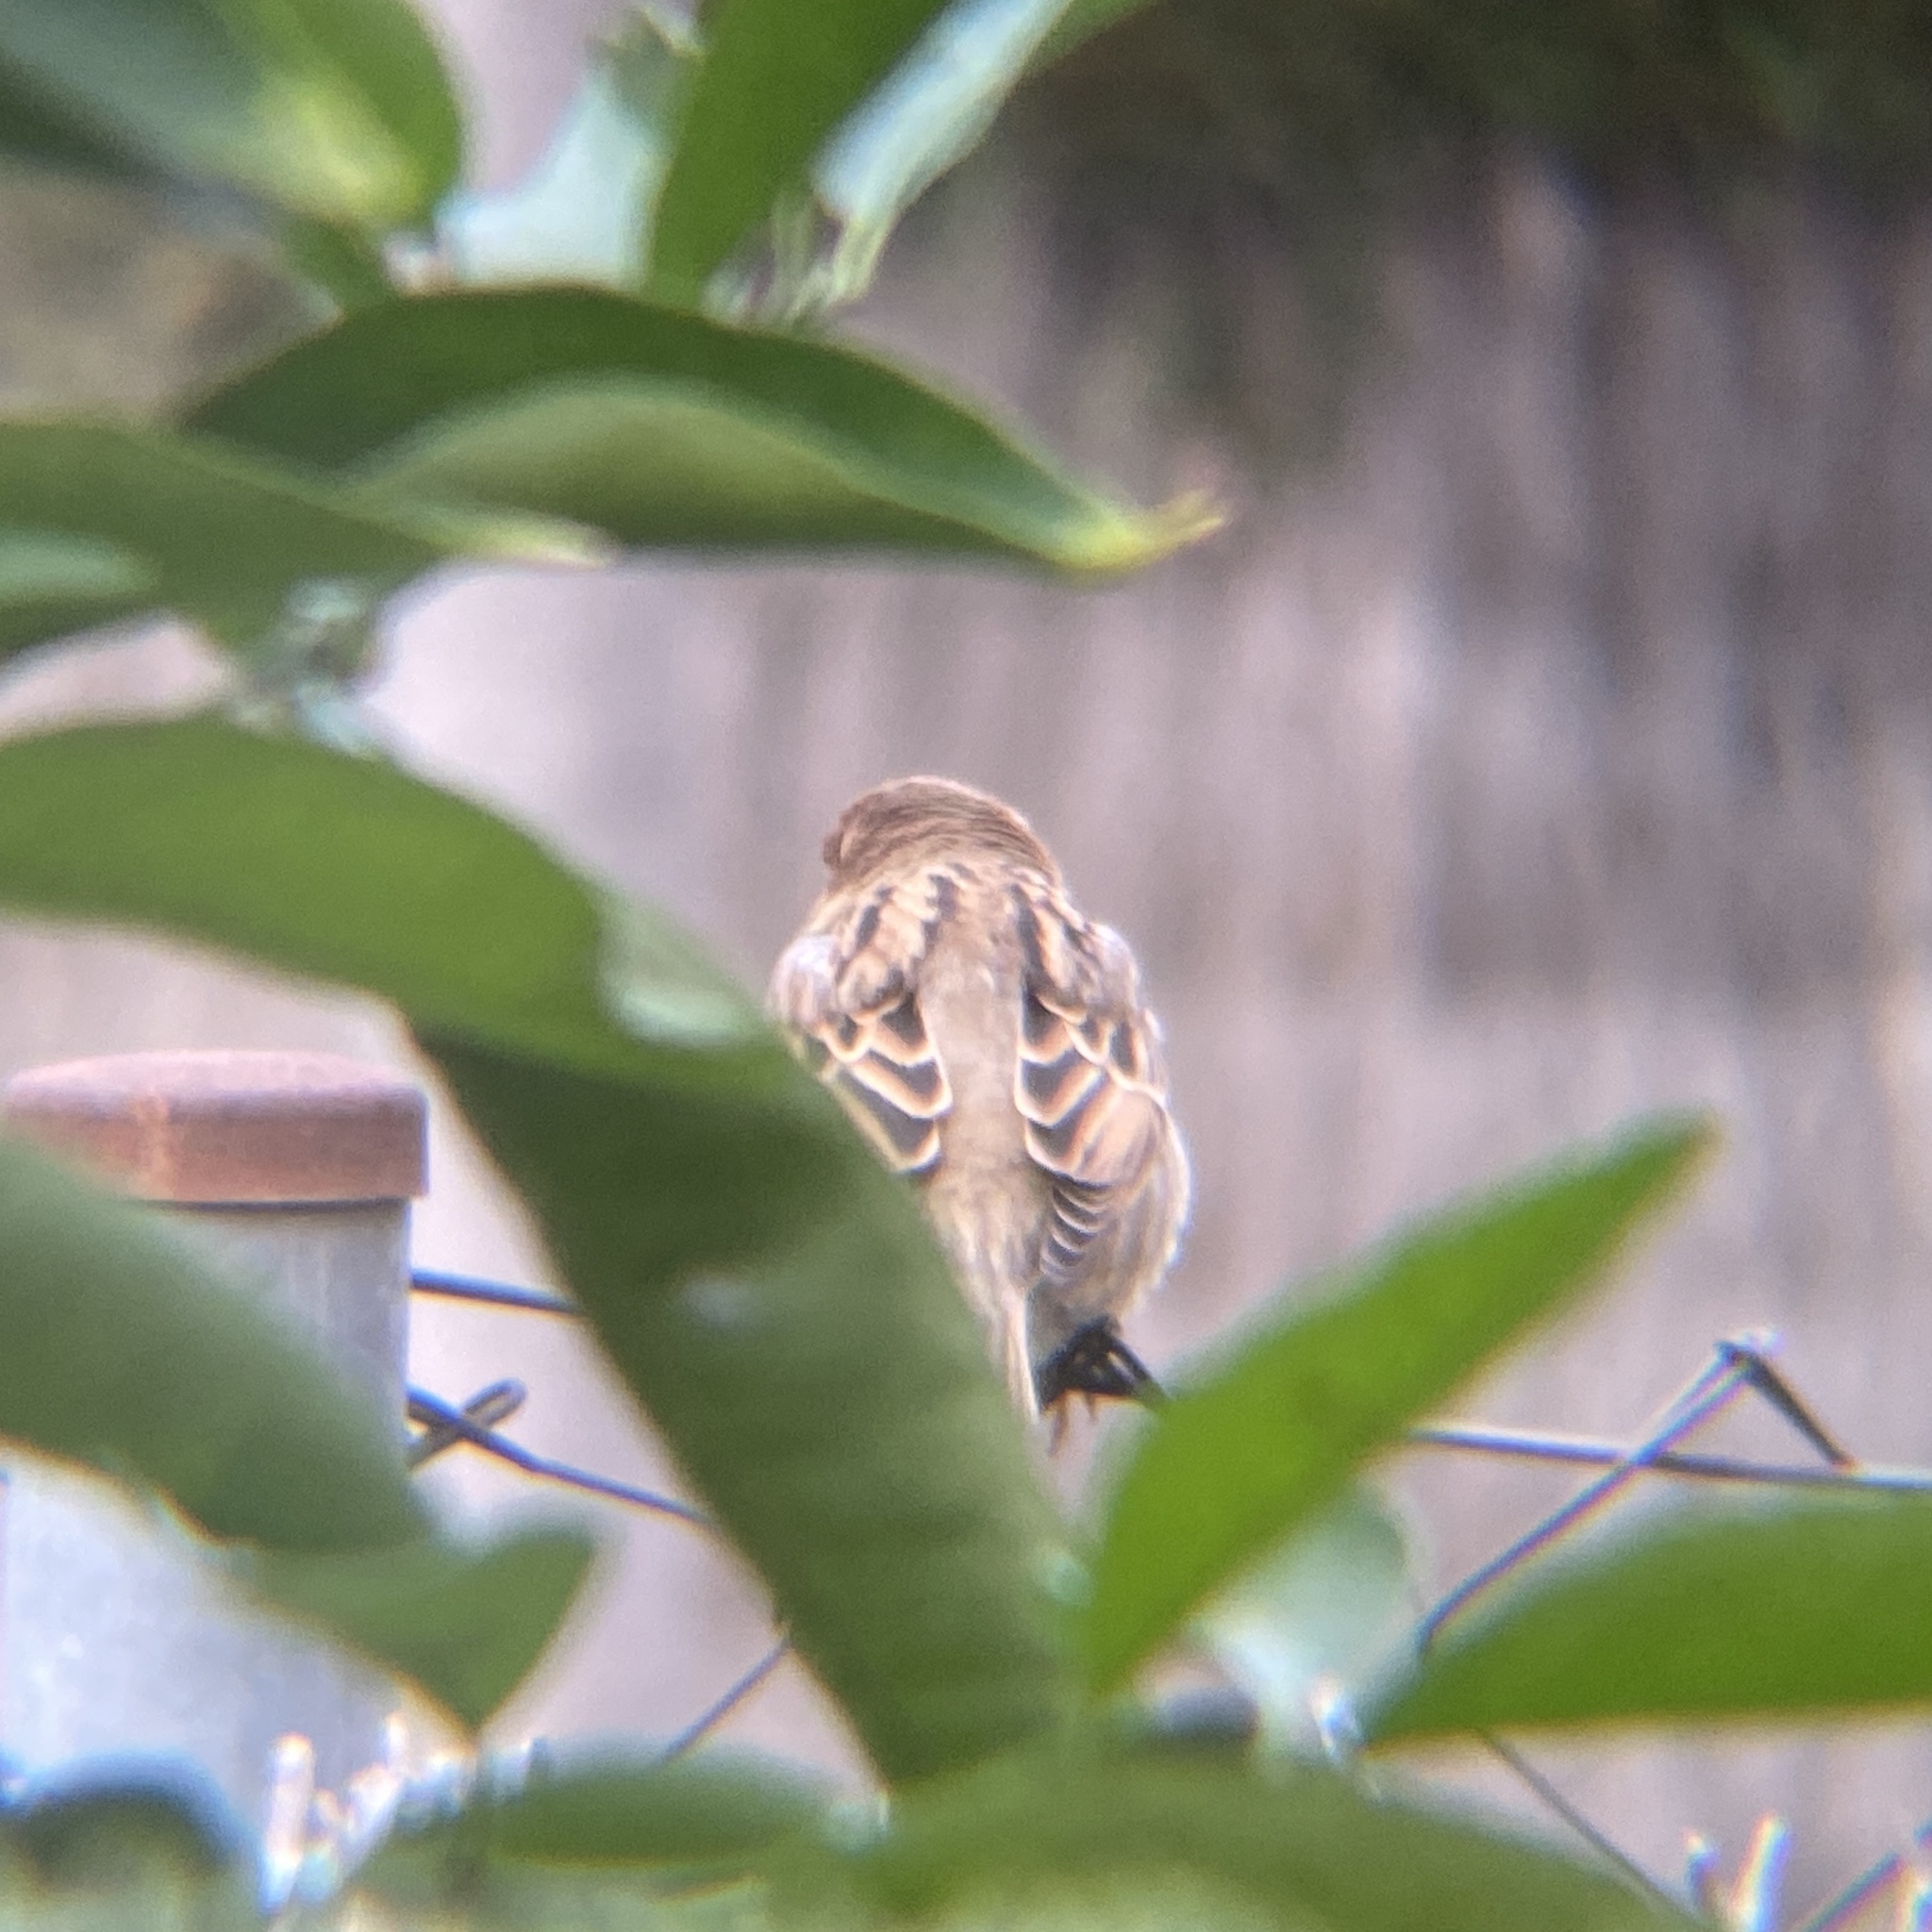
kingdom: Animalia
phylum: Chordata
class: Aves
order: Passeriformes
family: Passeridae
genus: Passer
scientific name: Passer domesticus
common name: House sparrow
